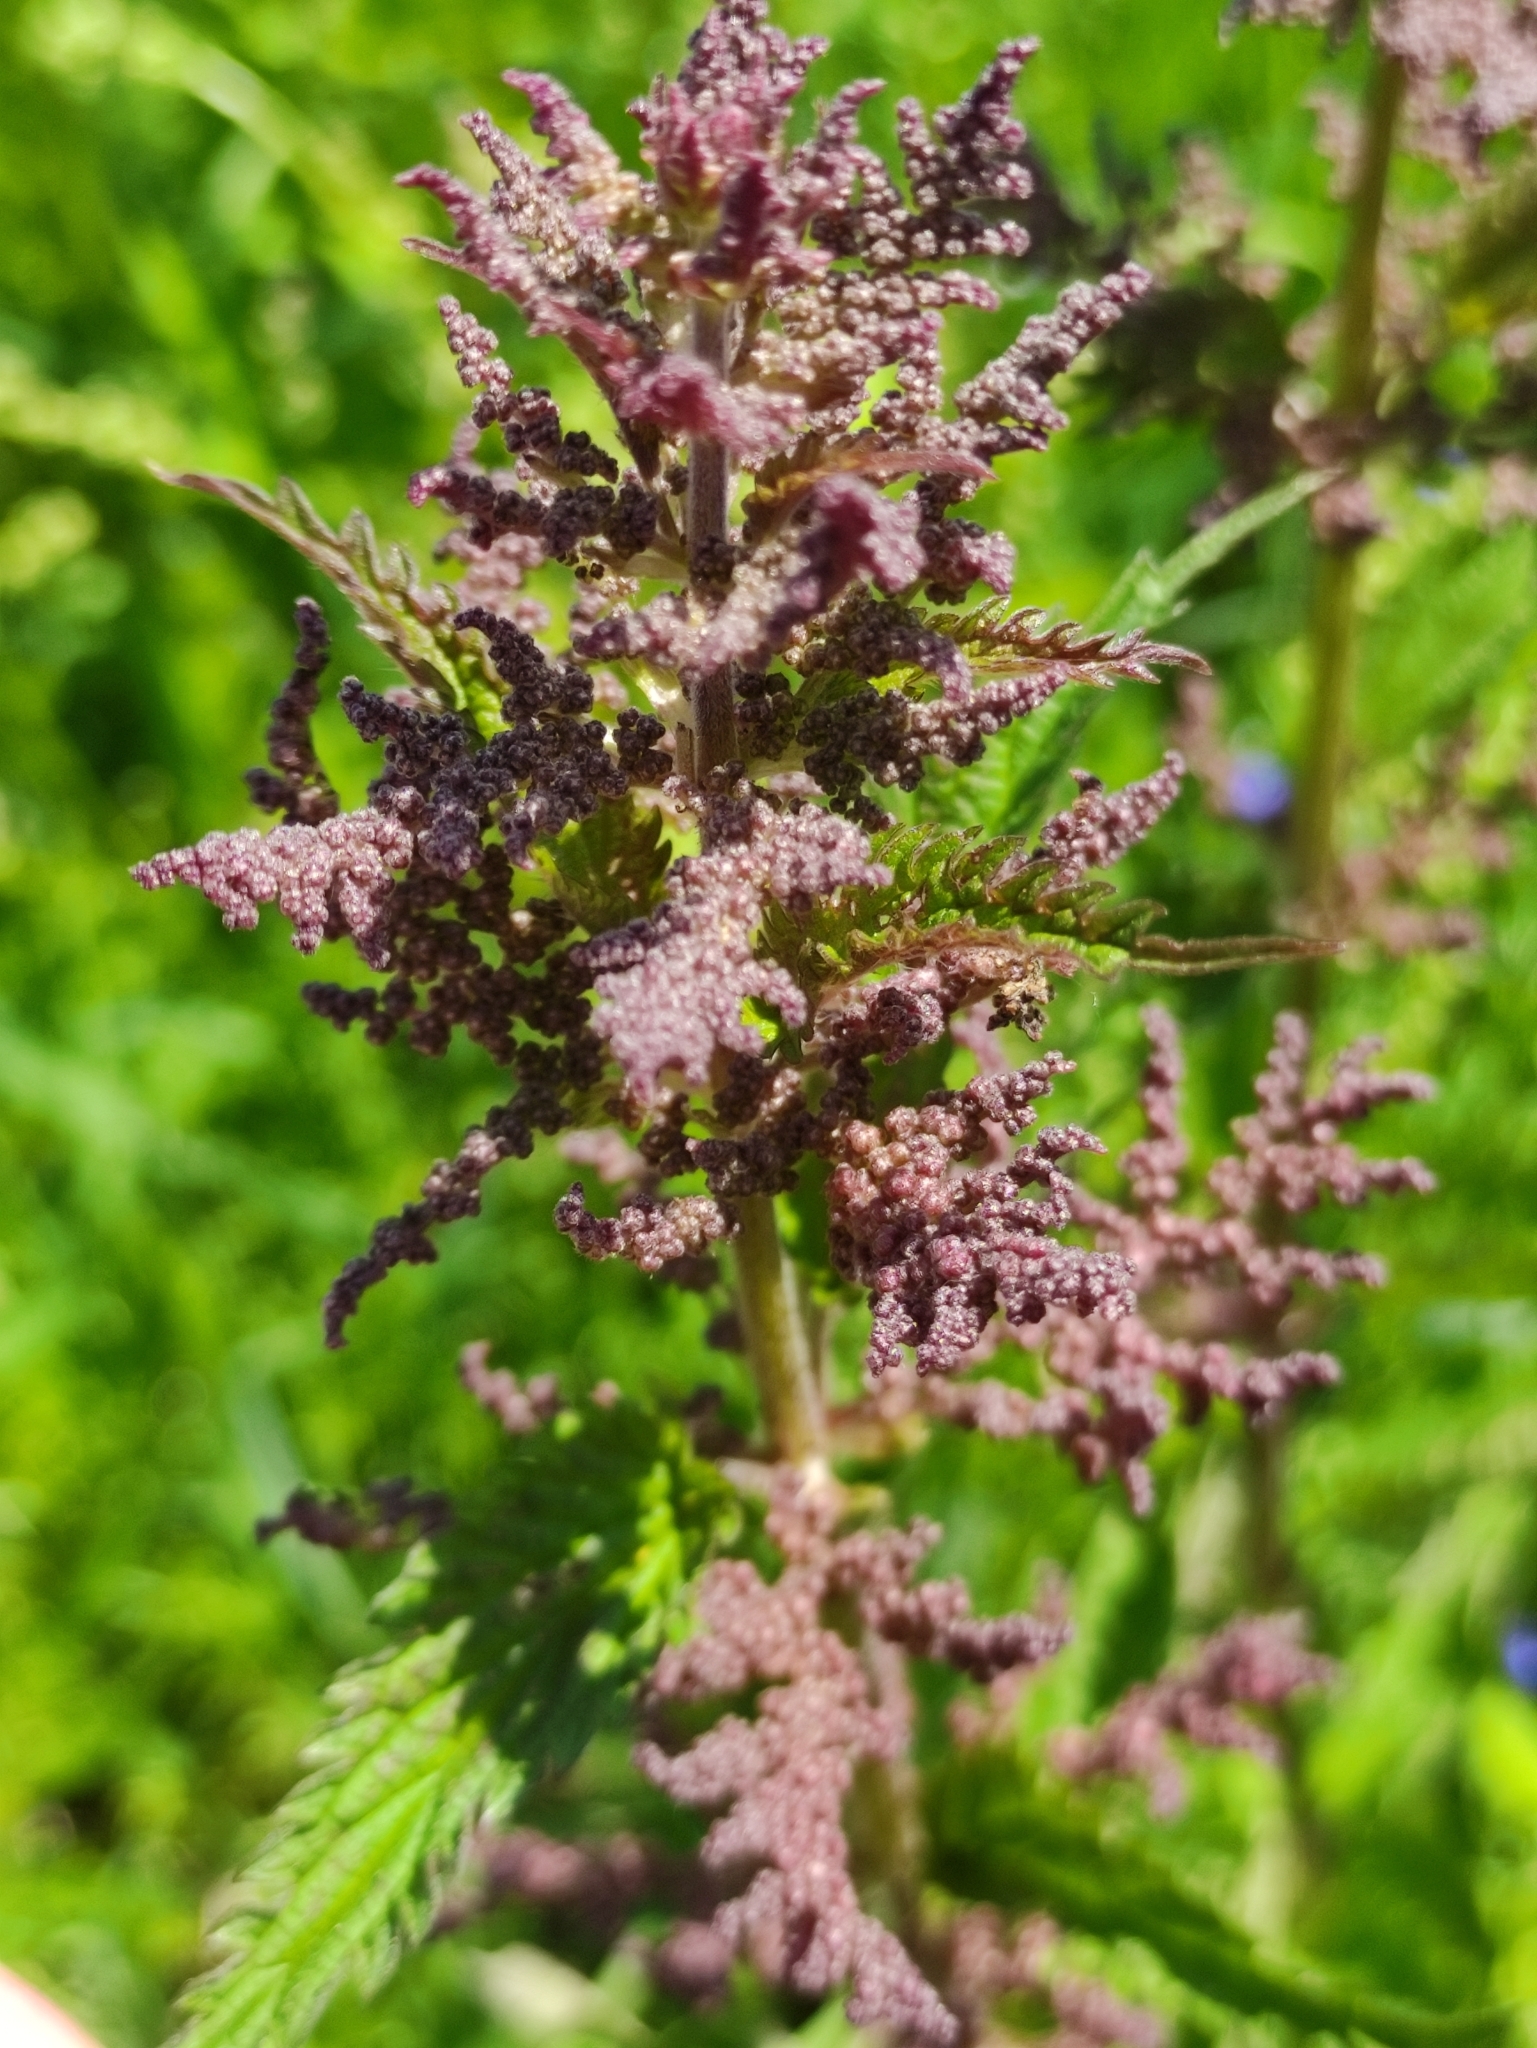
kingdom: Plantae
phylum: Tracheophyta
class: Magnoliopsida
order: Rosales
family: Urticaceae
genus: Urtica
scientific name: Urtica dioica
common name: Common nettle
